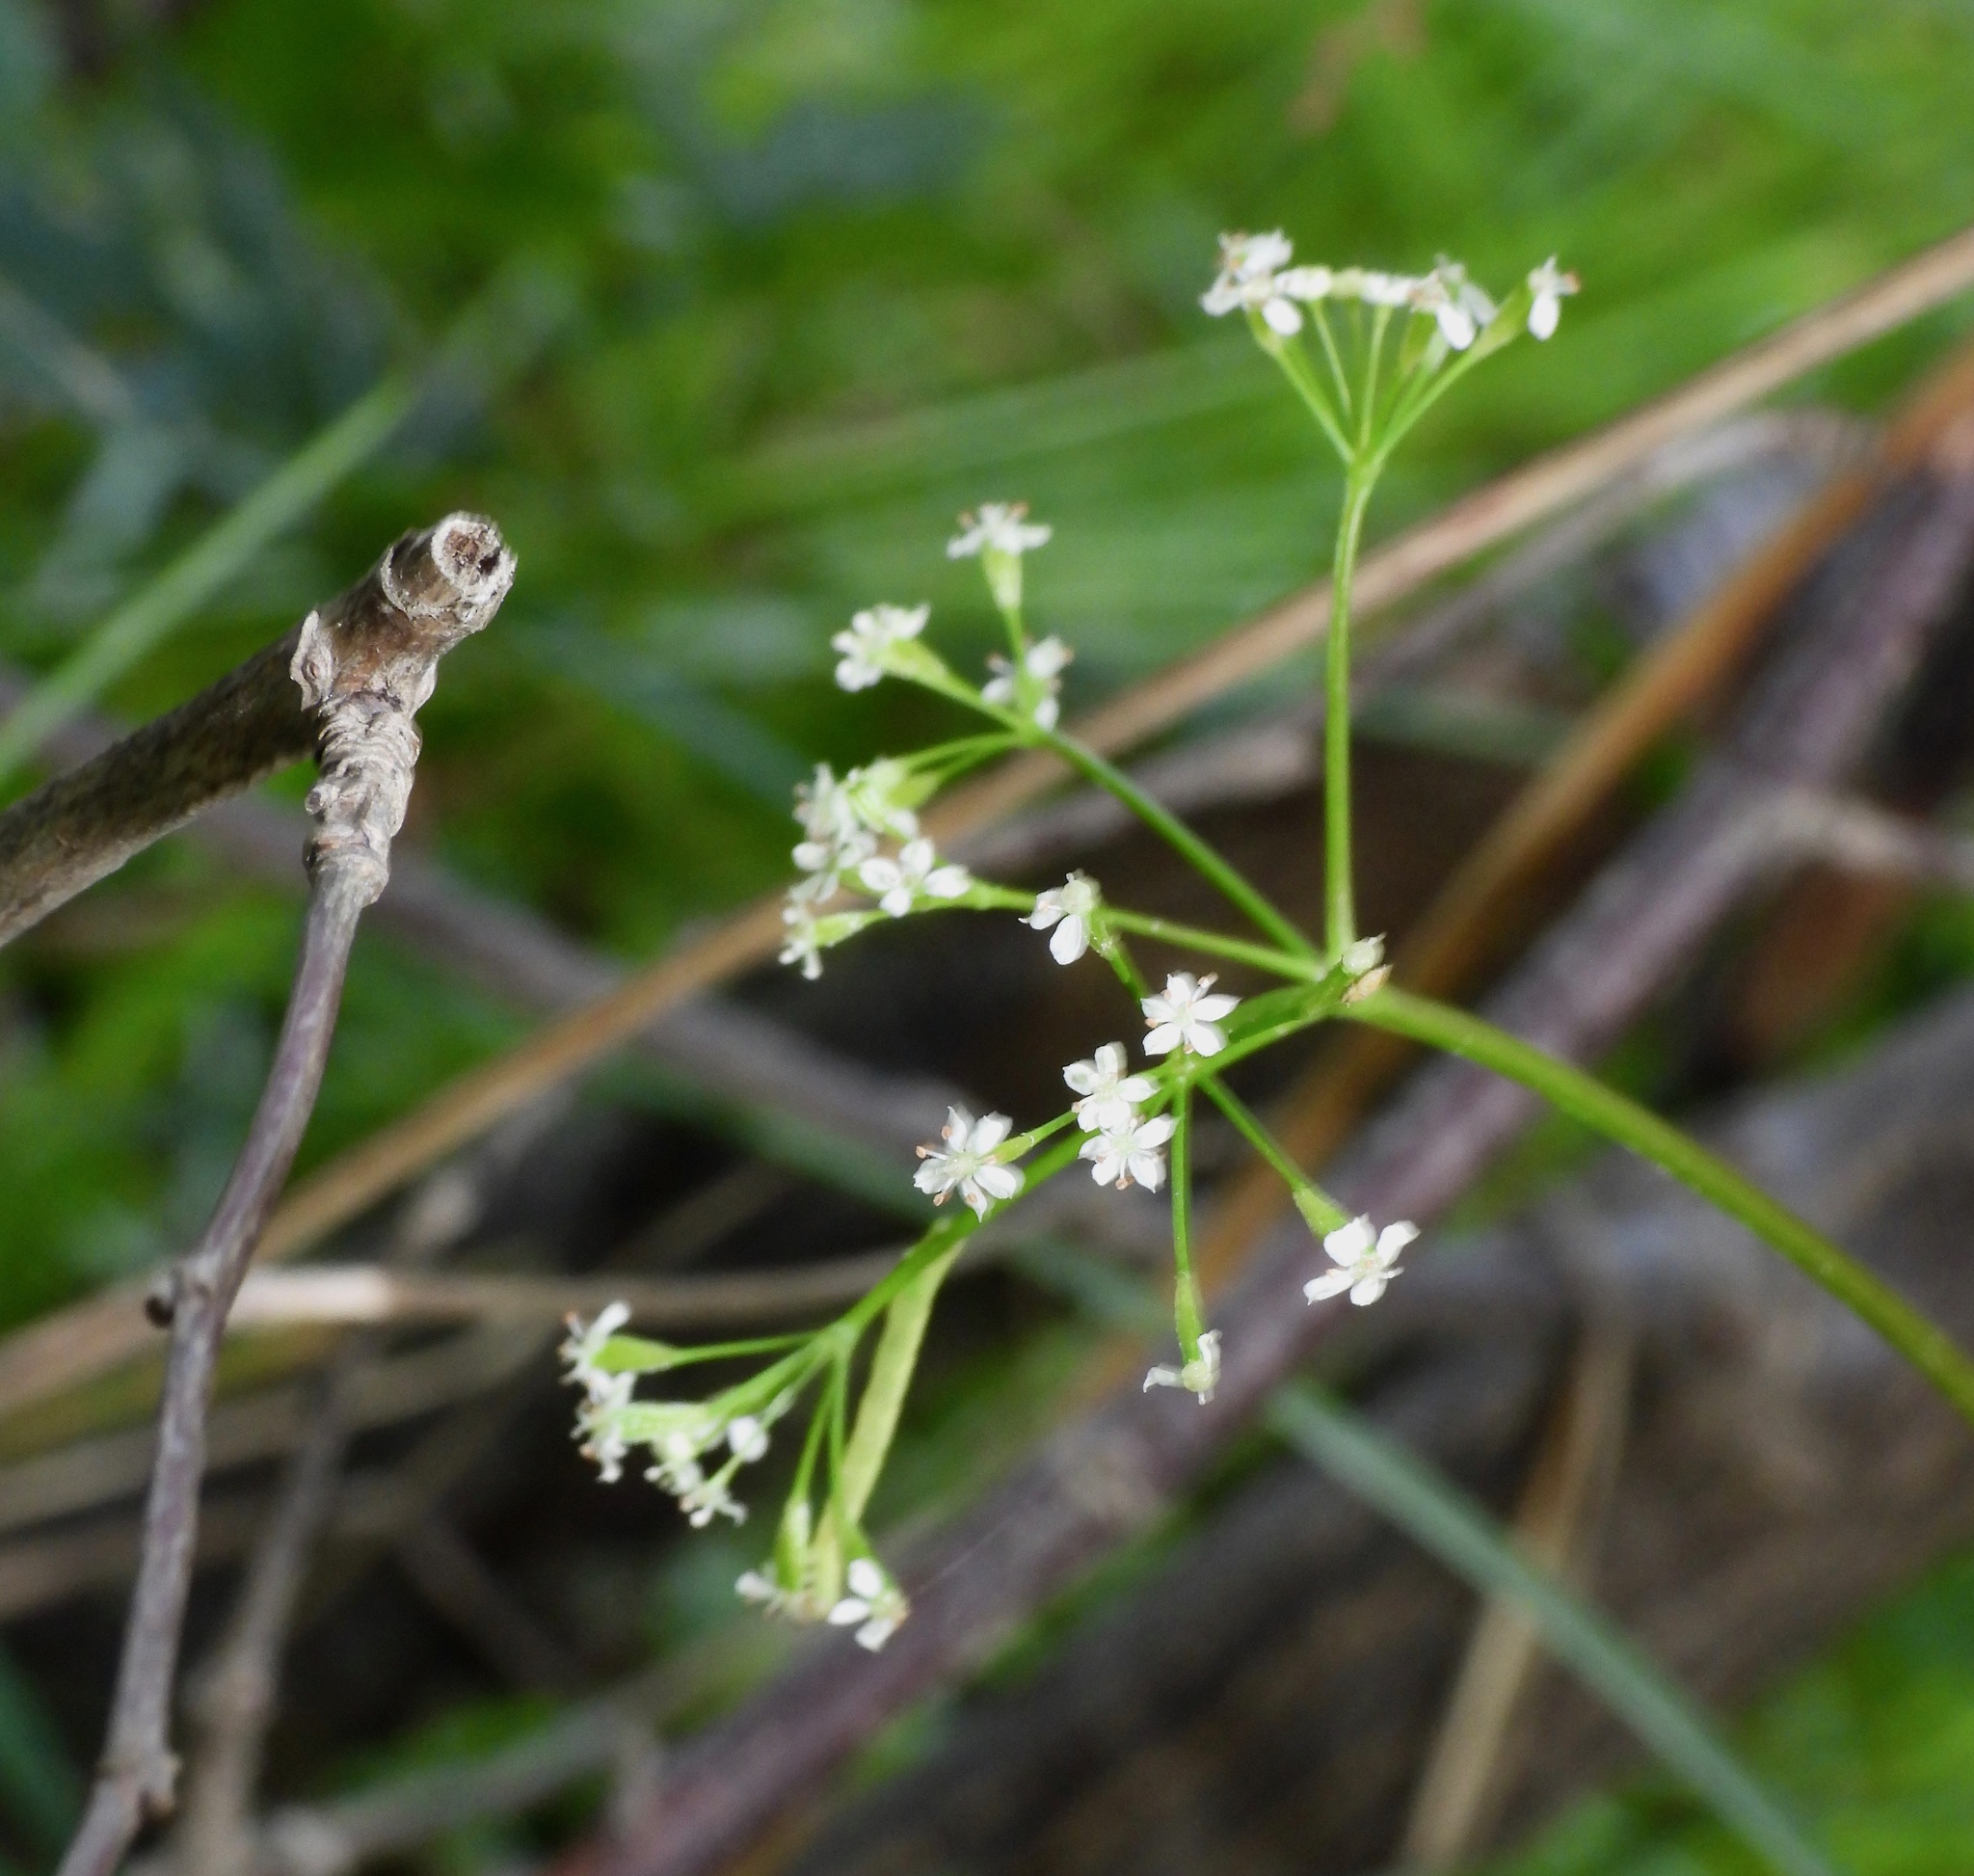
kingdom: Plantae
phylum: Tracheophyta
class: Magnoliopsida
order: Brassicales
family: Brassicaceae
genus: Capsella
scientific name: Capsella bursa-pastoris
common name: Shepherd's purse
